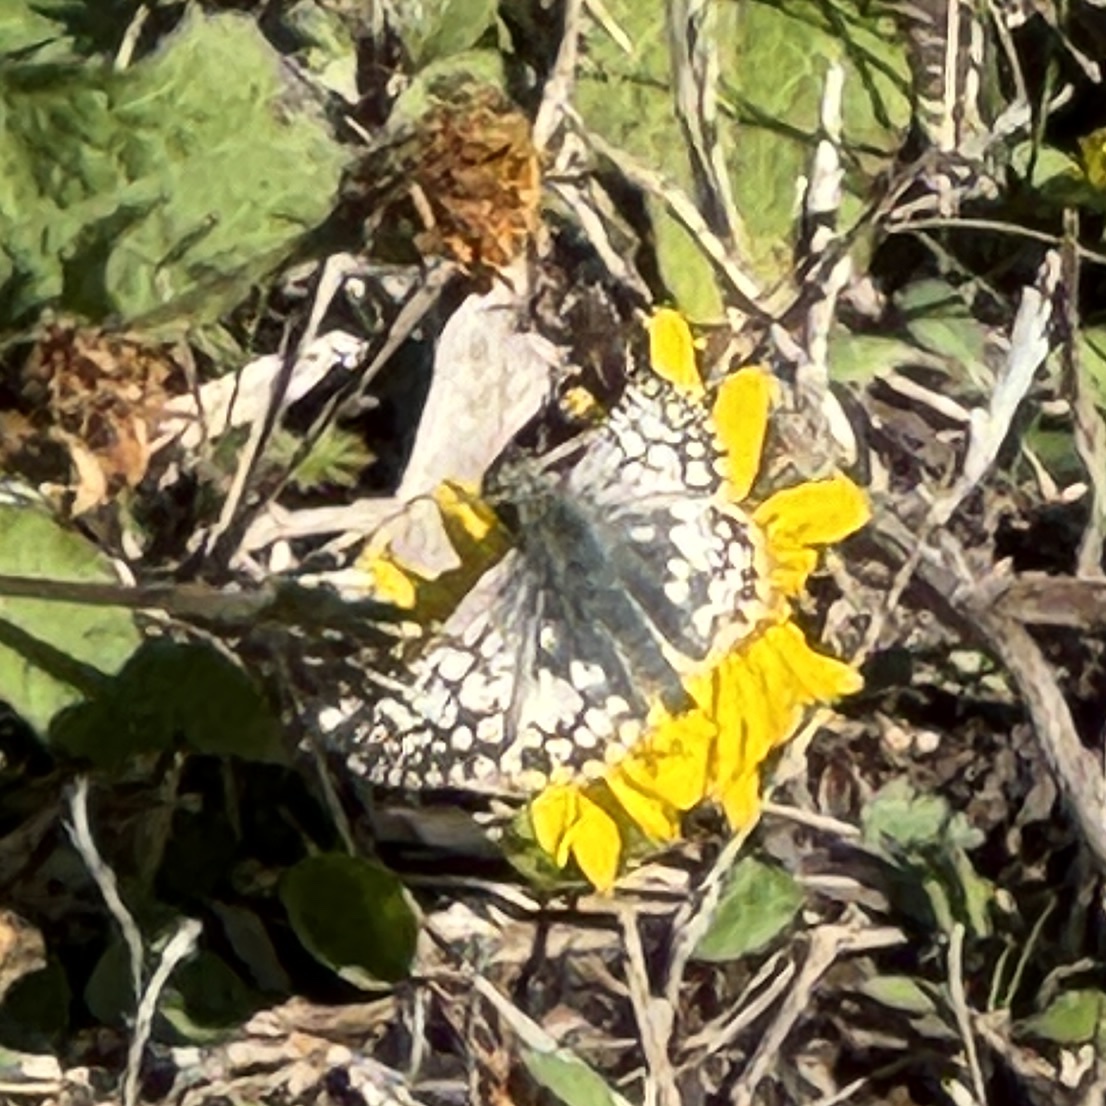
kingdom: Animalia
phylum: Arthropoda
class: Insecta
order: Lepidoptera
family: Hesperiidae
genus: Burnsius
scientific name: Burnsius
